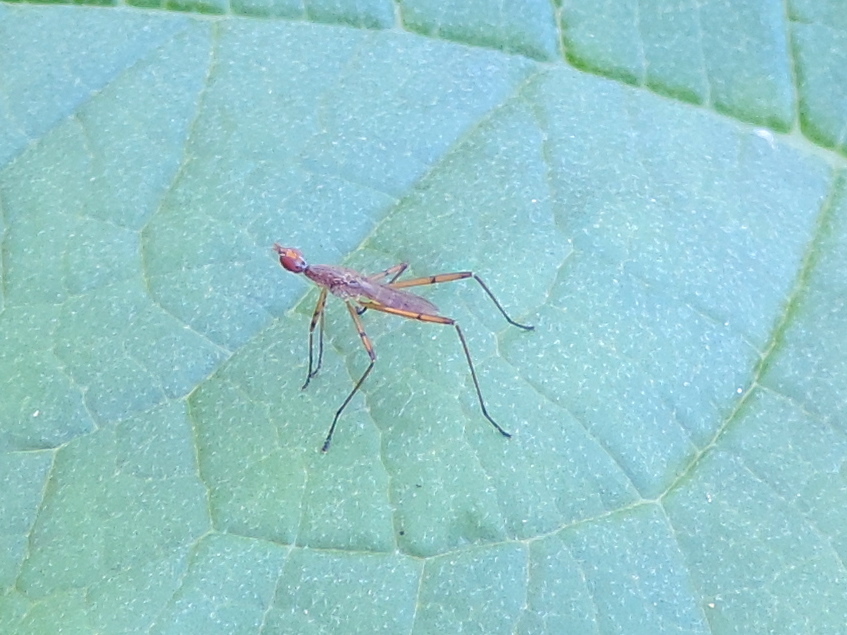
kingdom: Animalia
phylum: Arthropoda
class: Insecta
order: Diptera
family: Micropezidae
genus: Micropeza
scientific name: Micropeza stigmatica
